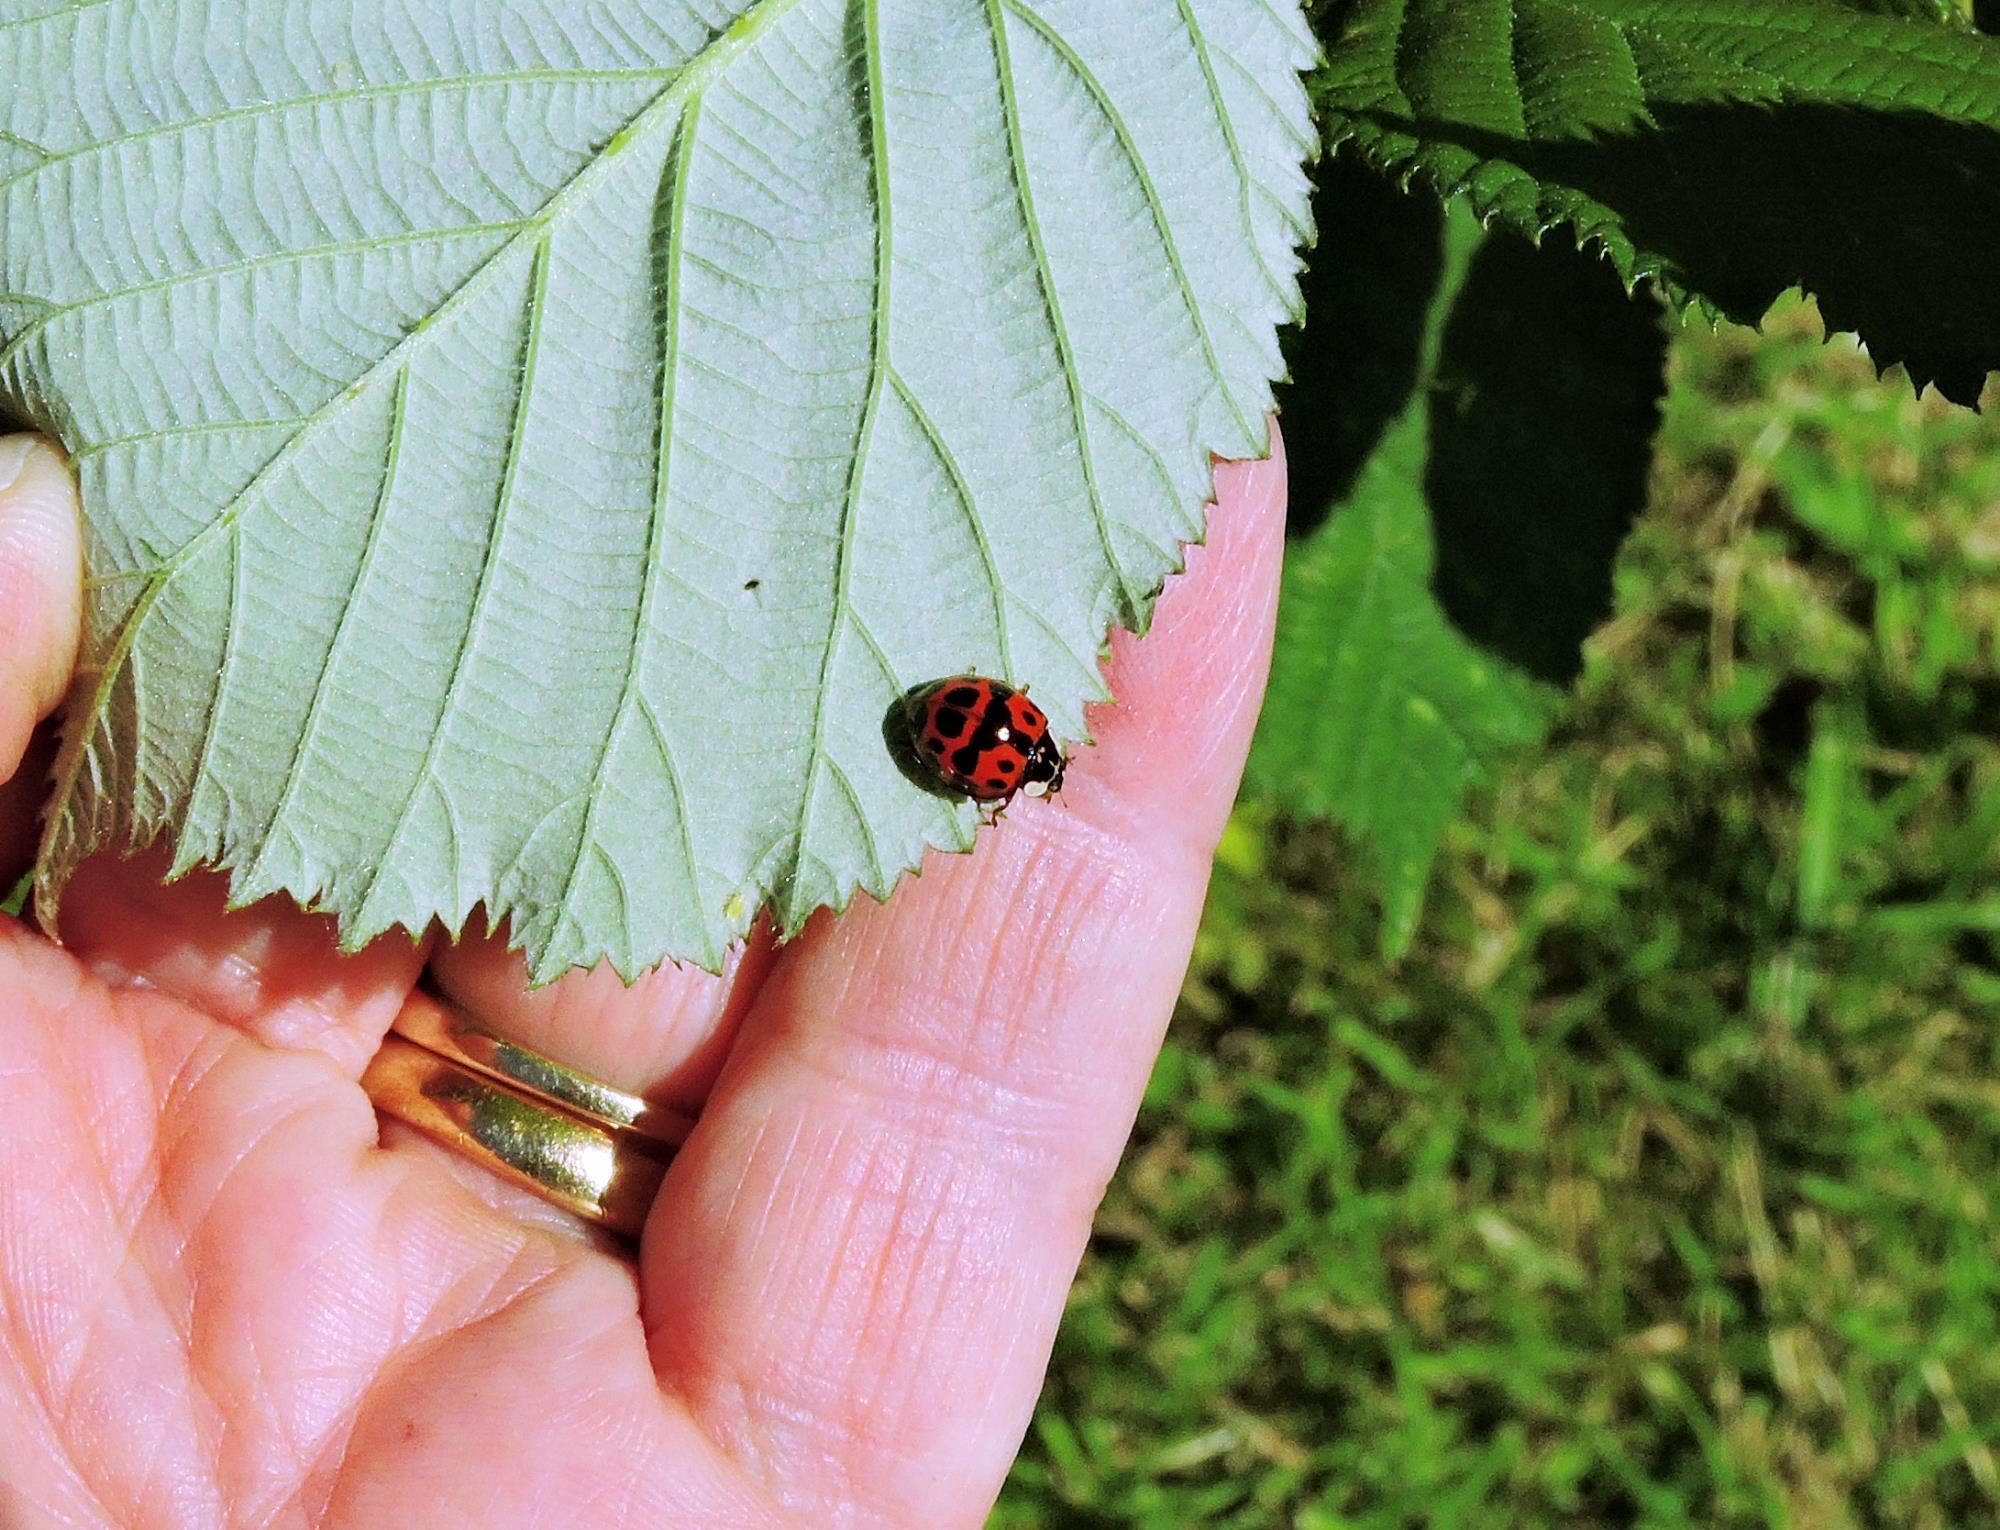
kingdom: Animalia
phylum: Arthropoda
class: Insecta
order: Coleoptera
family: Coccinellidae
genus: Harmonia
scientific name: Harmonia axyridis
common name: Harlequin ladybird
